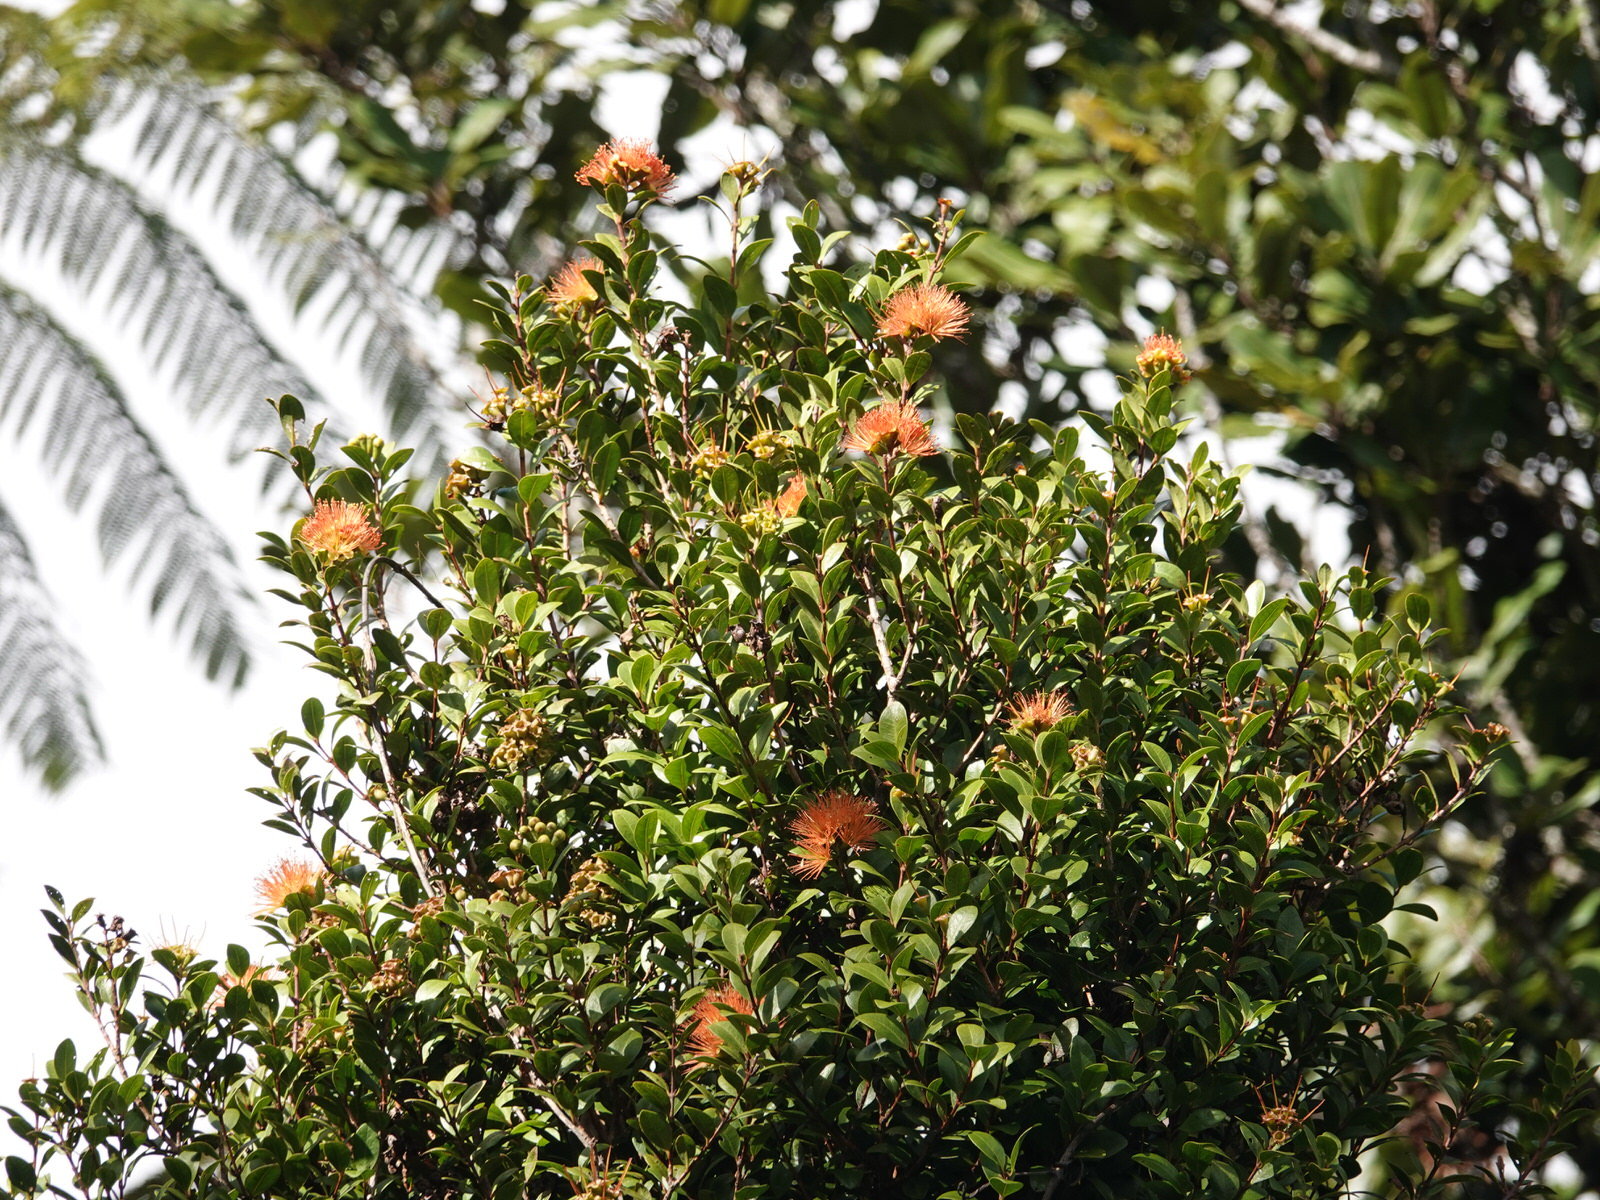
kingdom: Plantae
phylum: Tracheophyta
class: Magnoliopsida
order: Myrtales
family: Myrtaceae
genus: Metrosideros
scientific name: Metrosideros fulgens
